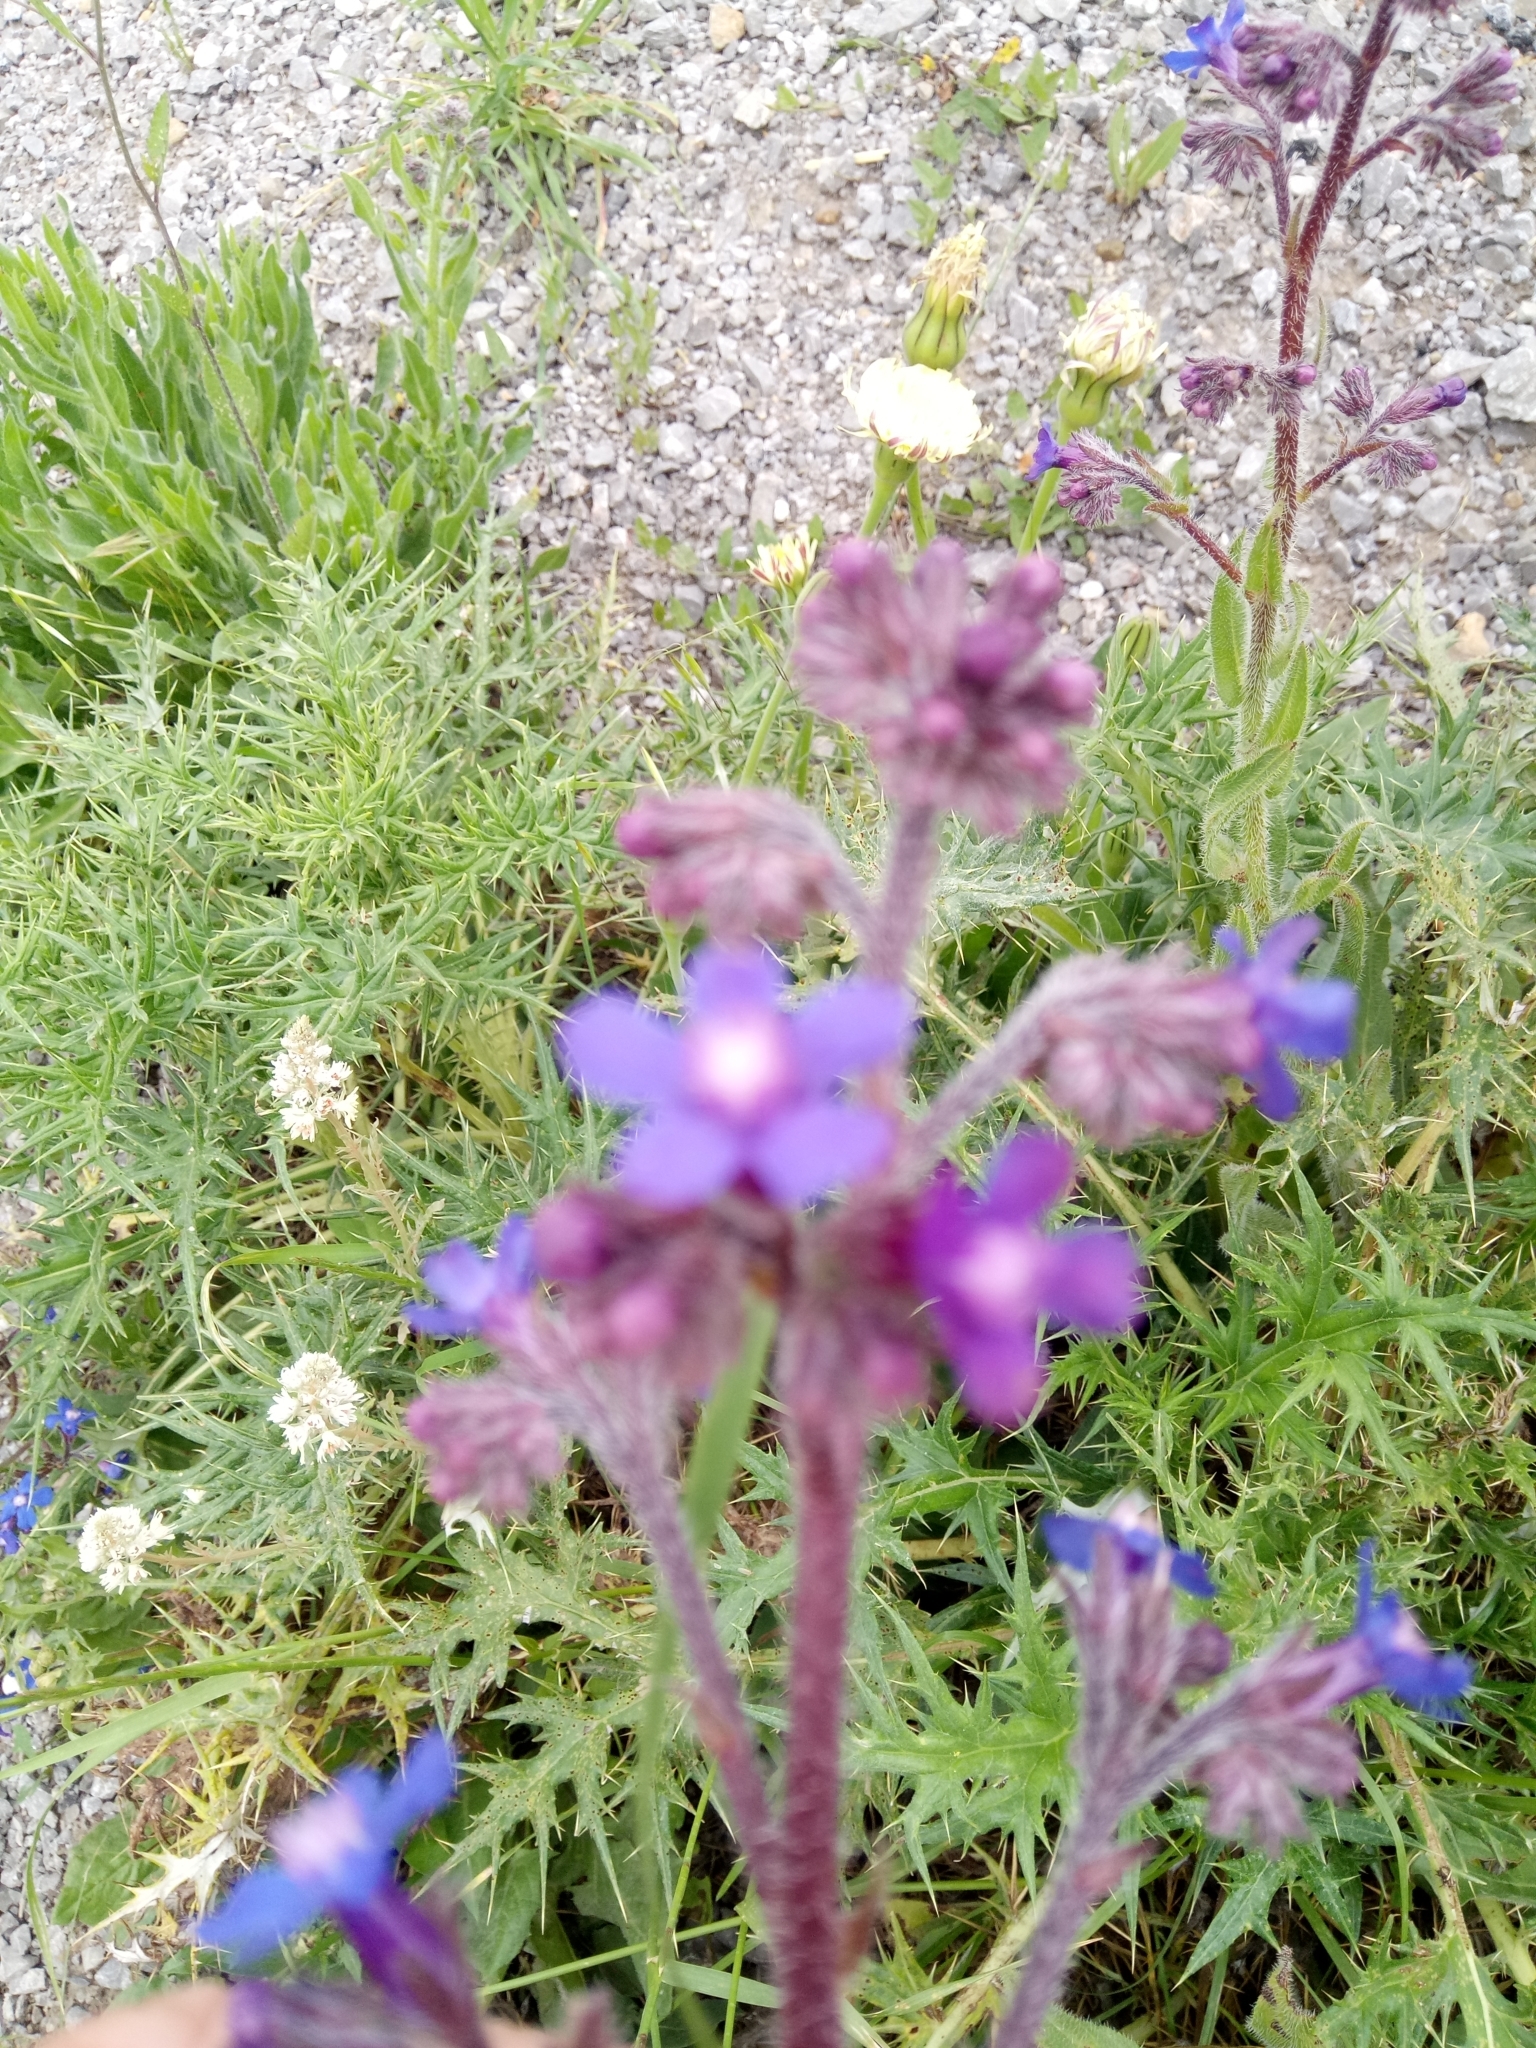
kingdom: Plantae
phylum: Tracheophyta
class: Magnoliopsida
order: Boraginales
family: Boraginaceae
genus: Anchusa
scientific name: Anchusa azurea
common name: Garden anchusa
